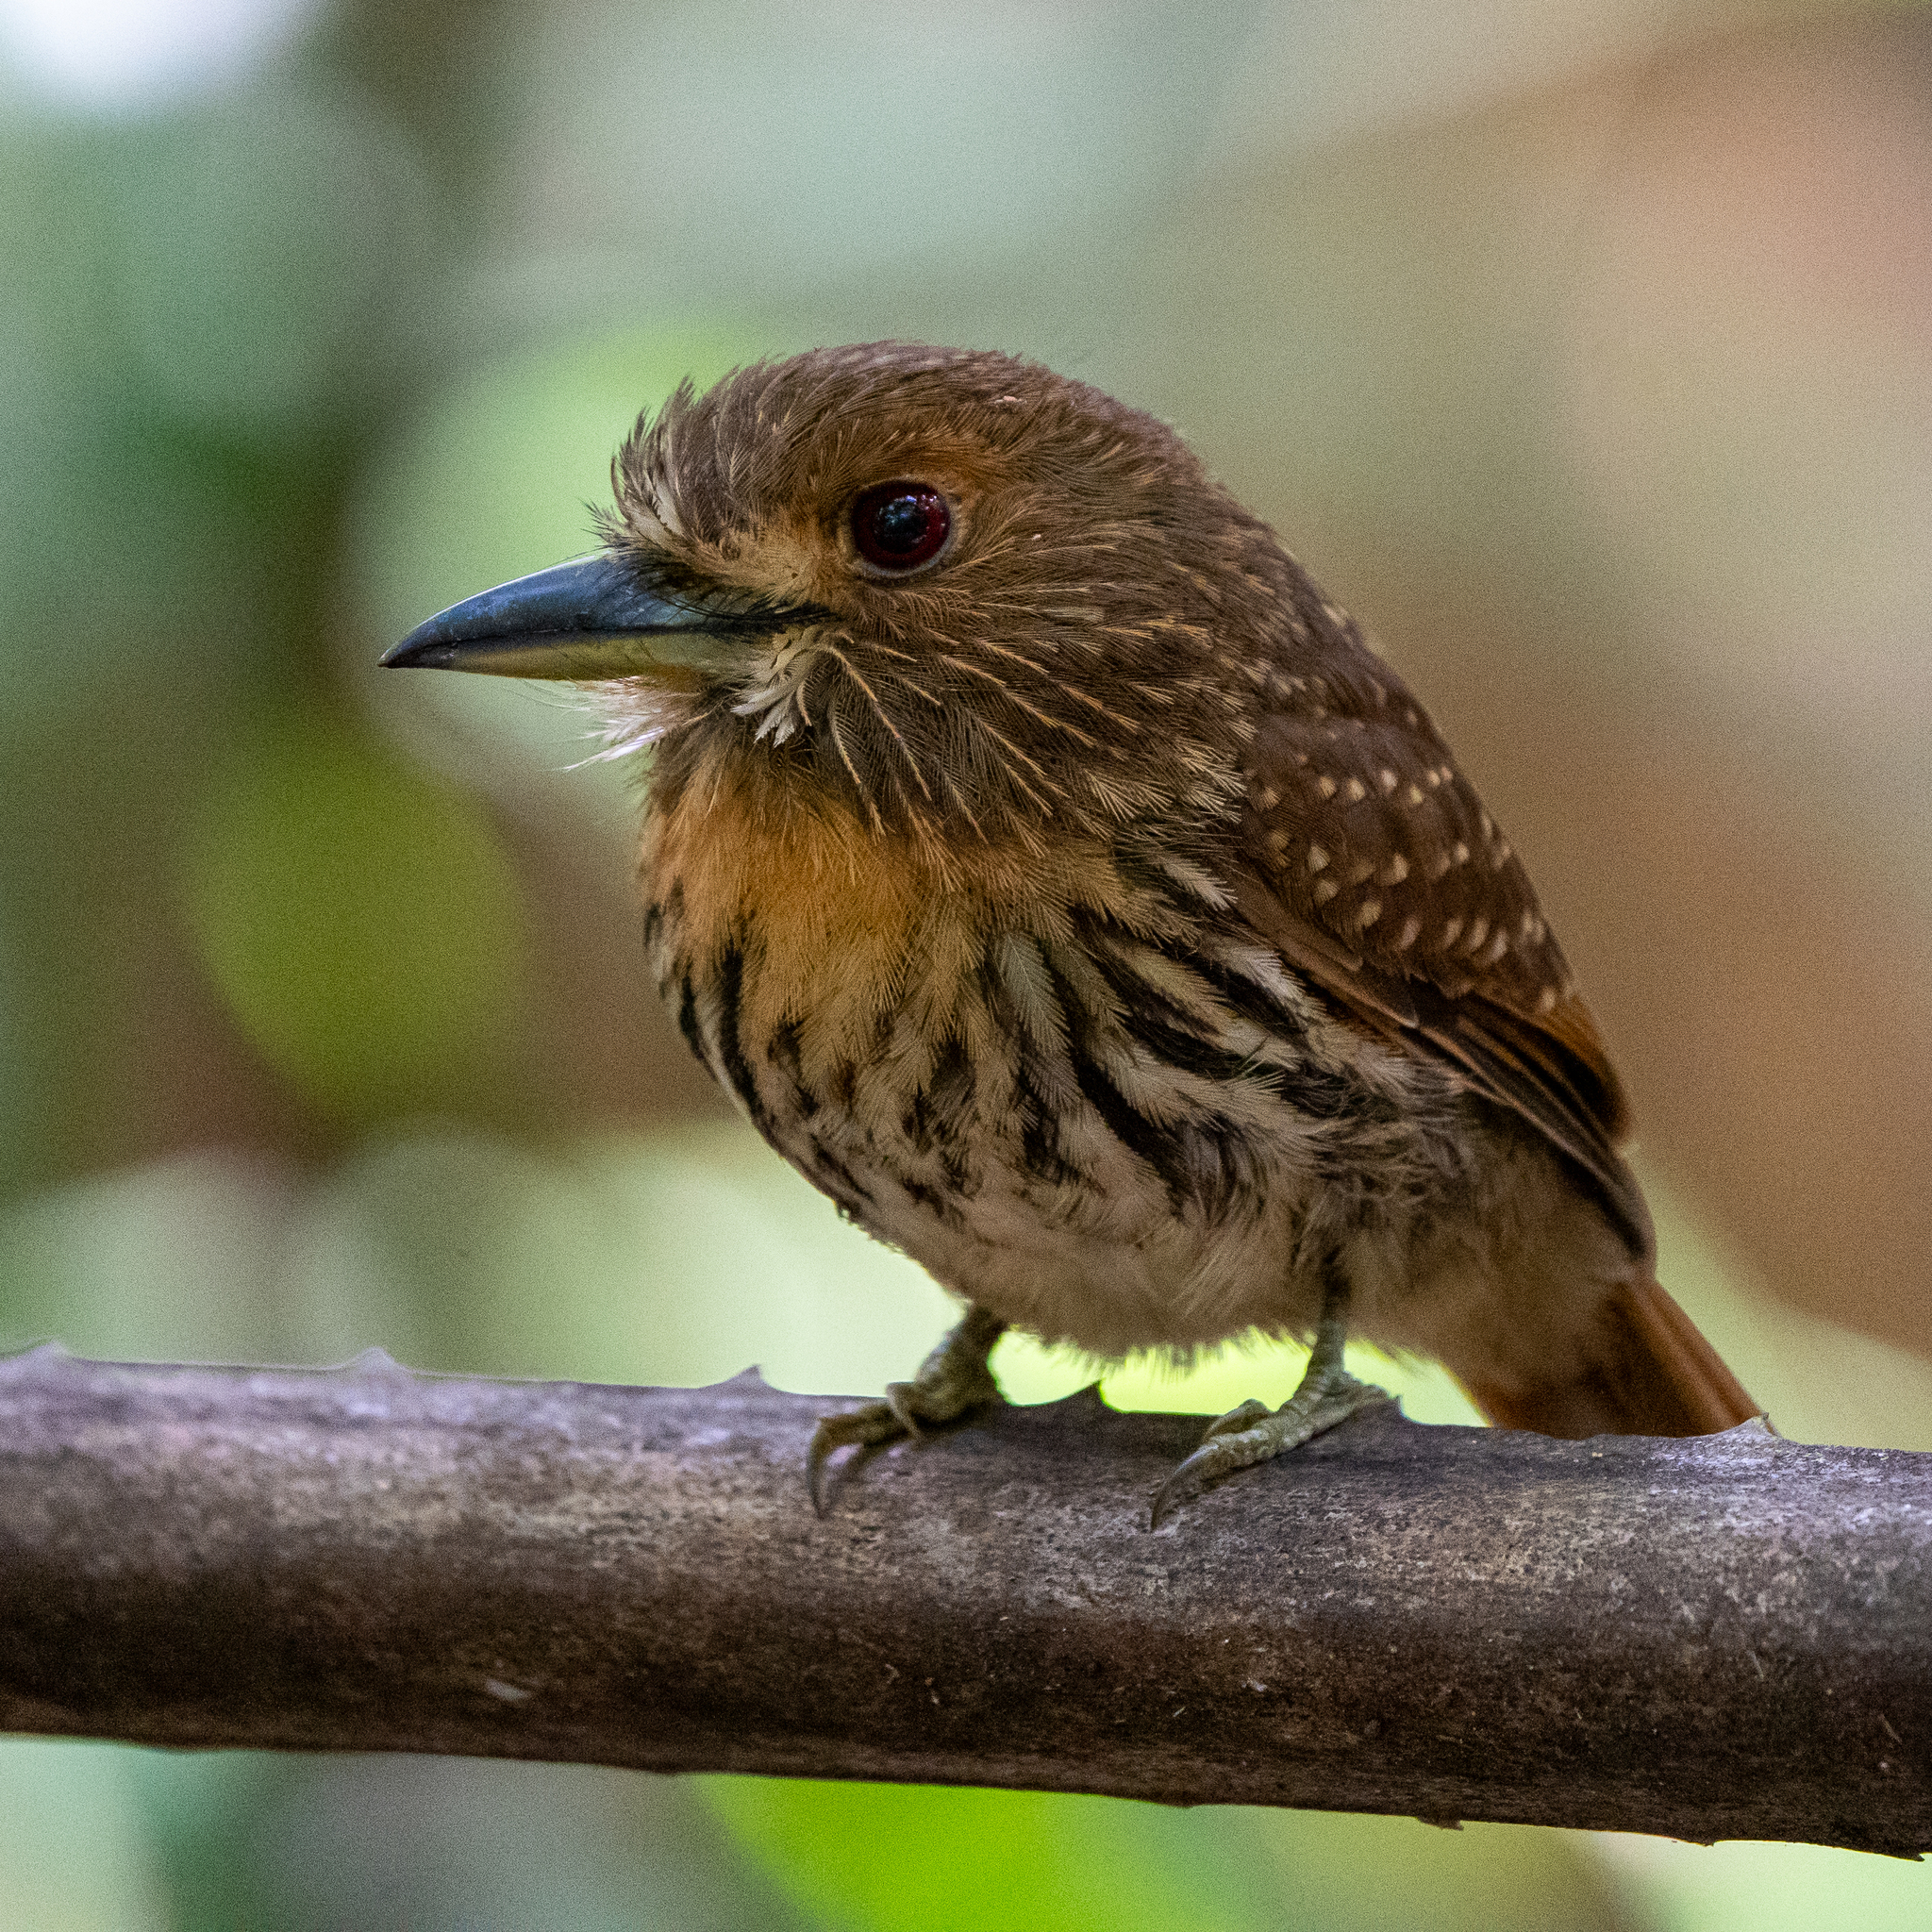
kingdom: Animalia
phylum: Chordata
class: Aves
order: Piciformes
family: Bucconidae
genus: Malacoptila
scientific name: Malacoptila panamensis
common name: White-whiskered puffbird
